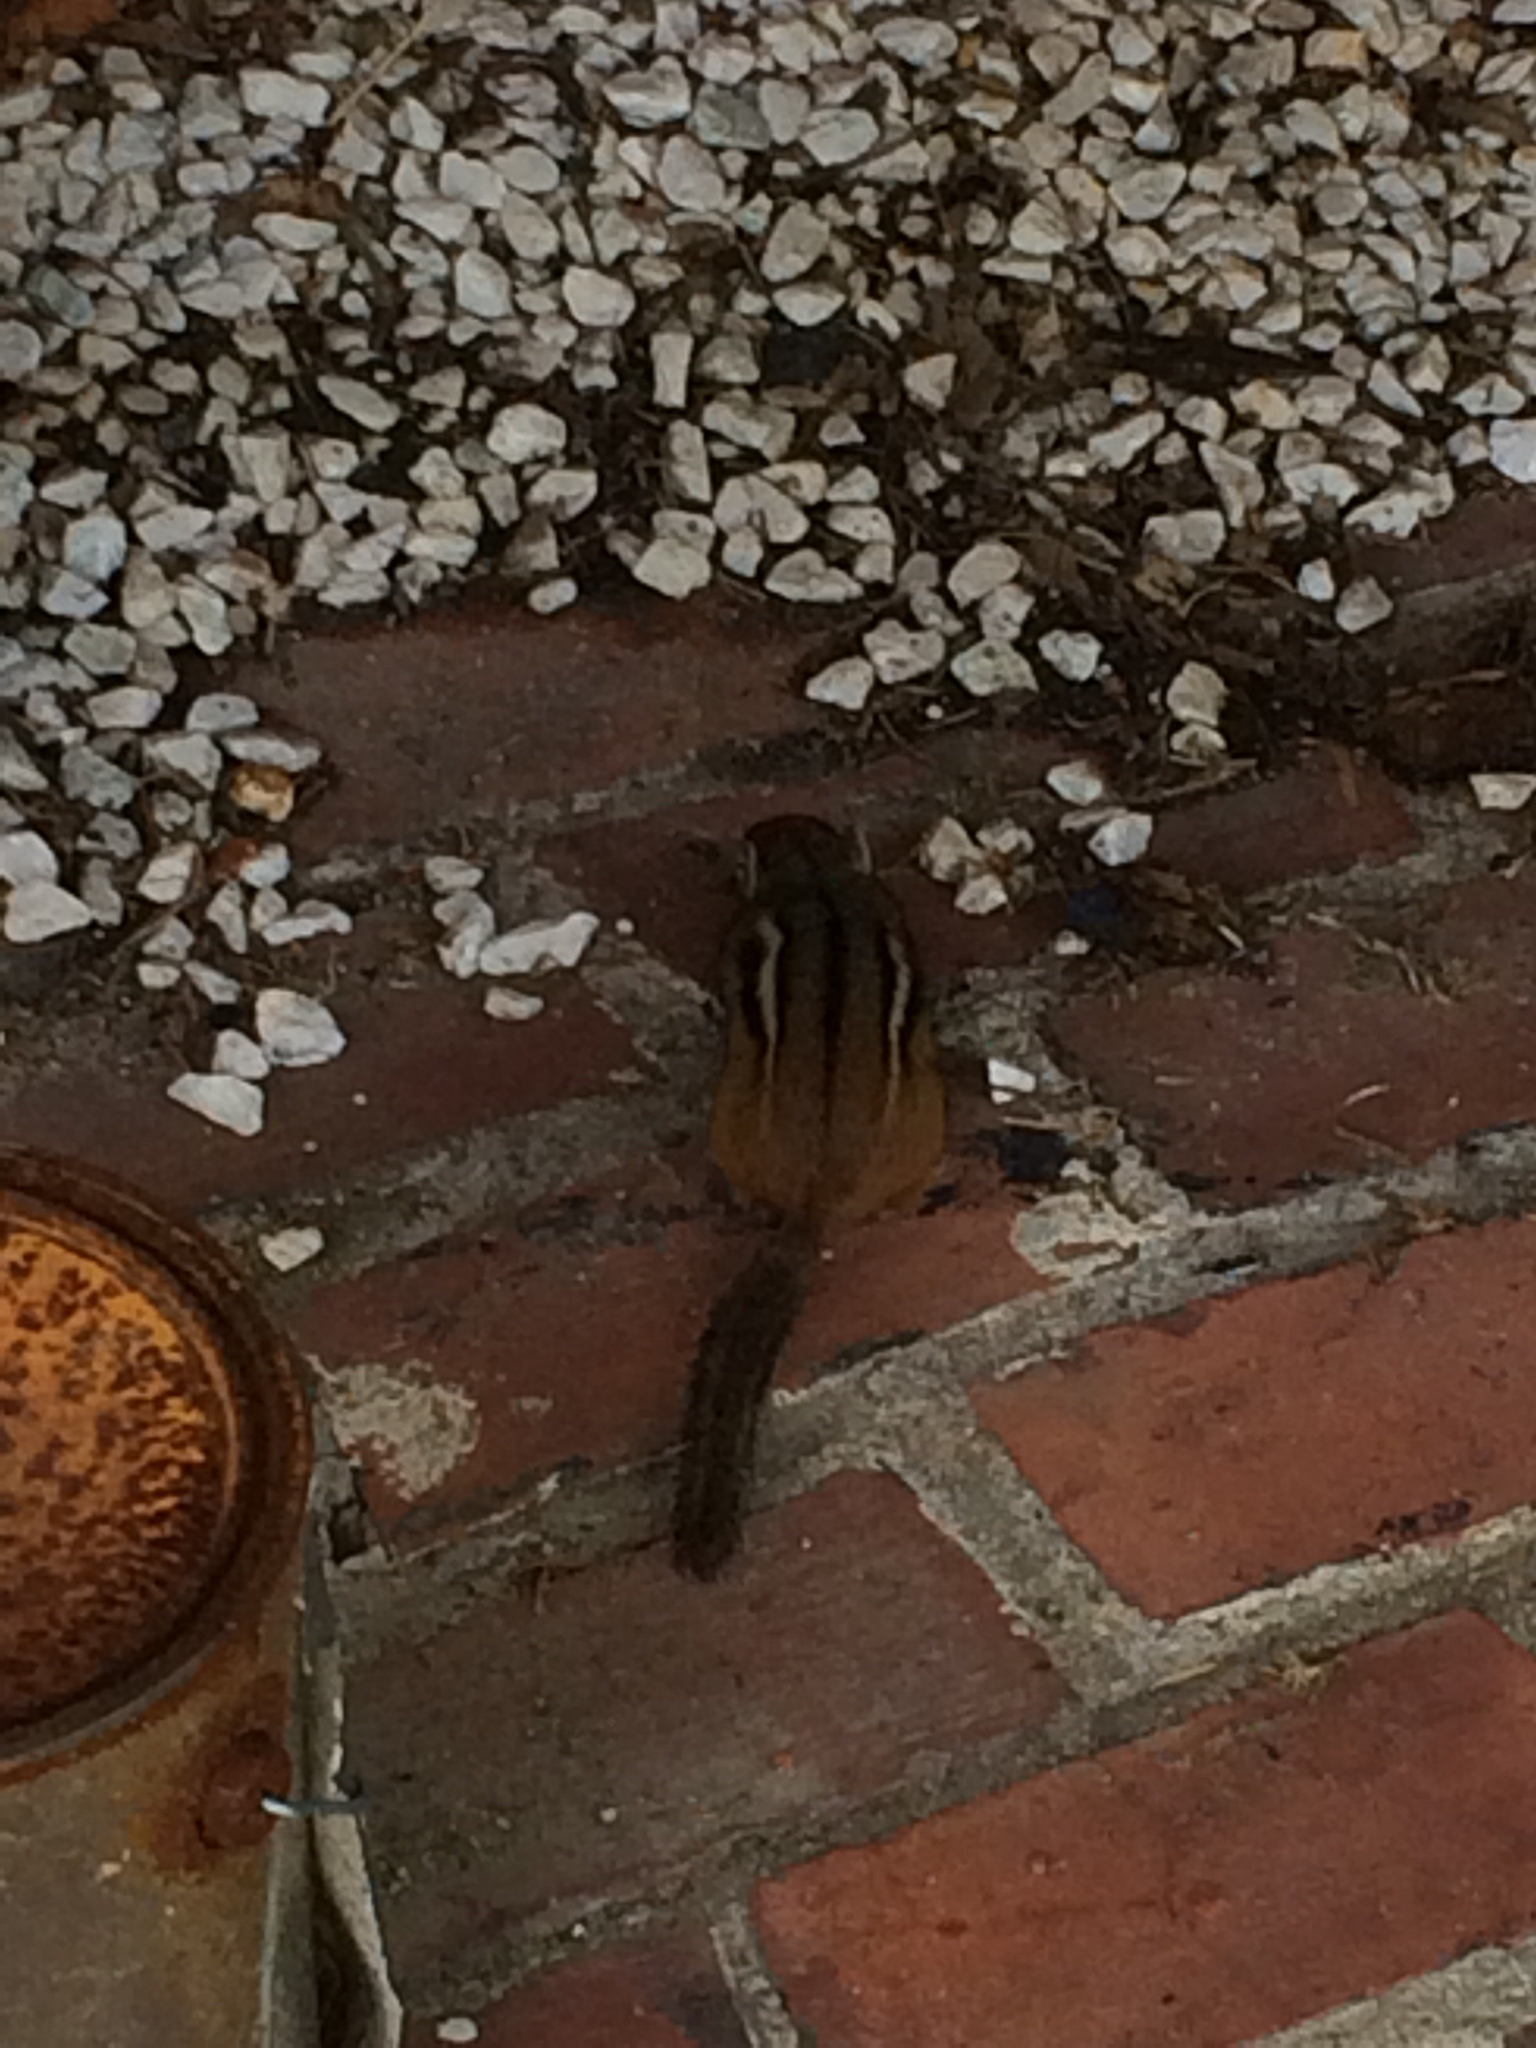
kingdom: Animalia
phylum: Chordata
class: Mammalia
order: Rodentia
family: Sciuridae
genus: Tamias
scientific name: Tamias striatus
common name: Eastern chipmunk
